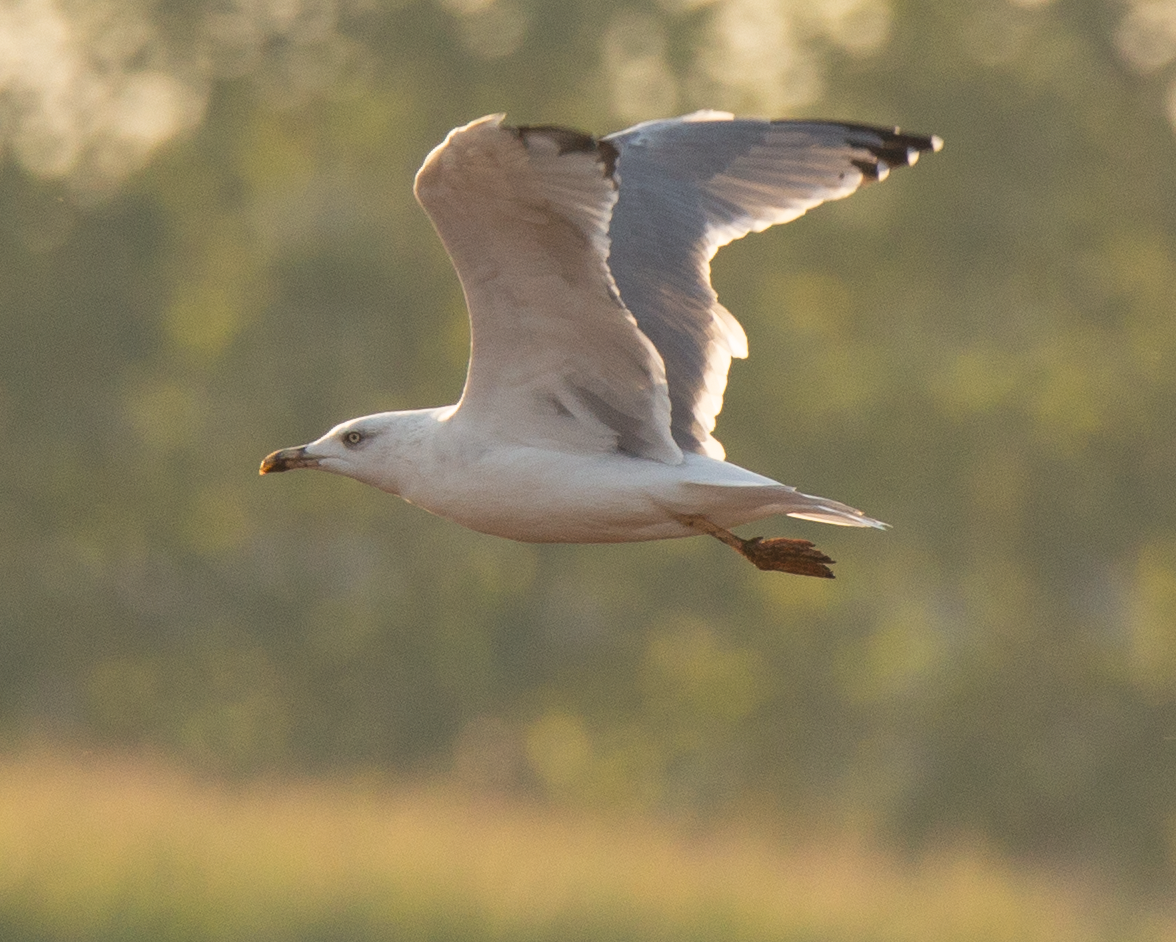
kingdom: Animalia
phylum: Chordata
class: Aves
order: Charadriiformes
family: Laridae
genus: Larus
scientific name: Larus michahellis
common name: Yellow-legged gull
